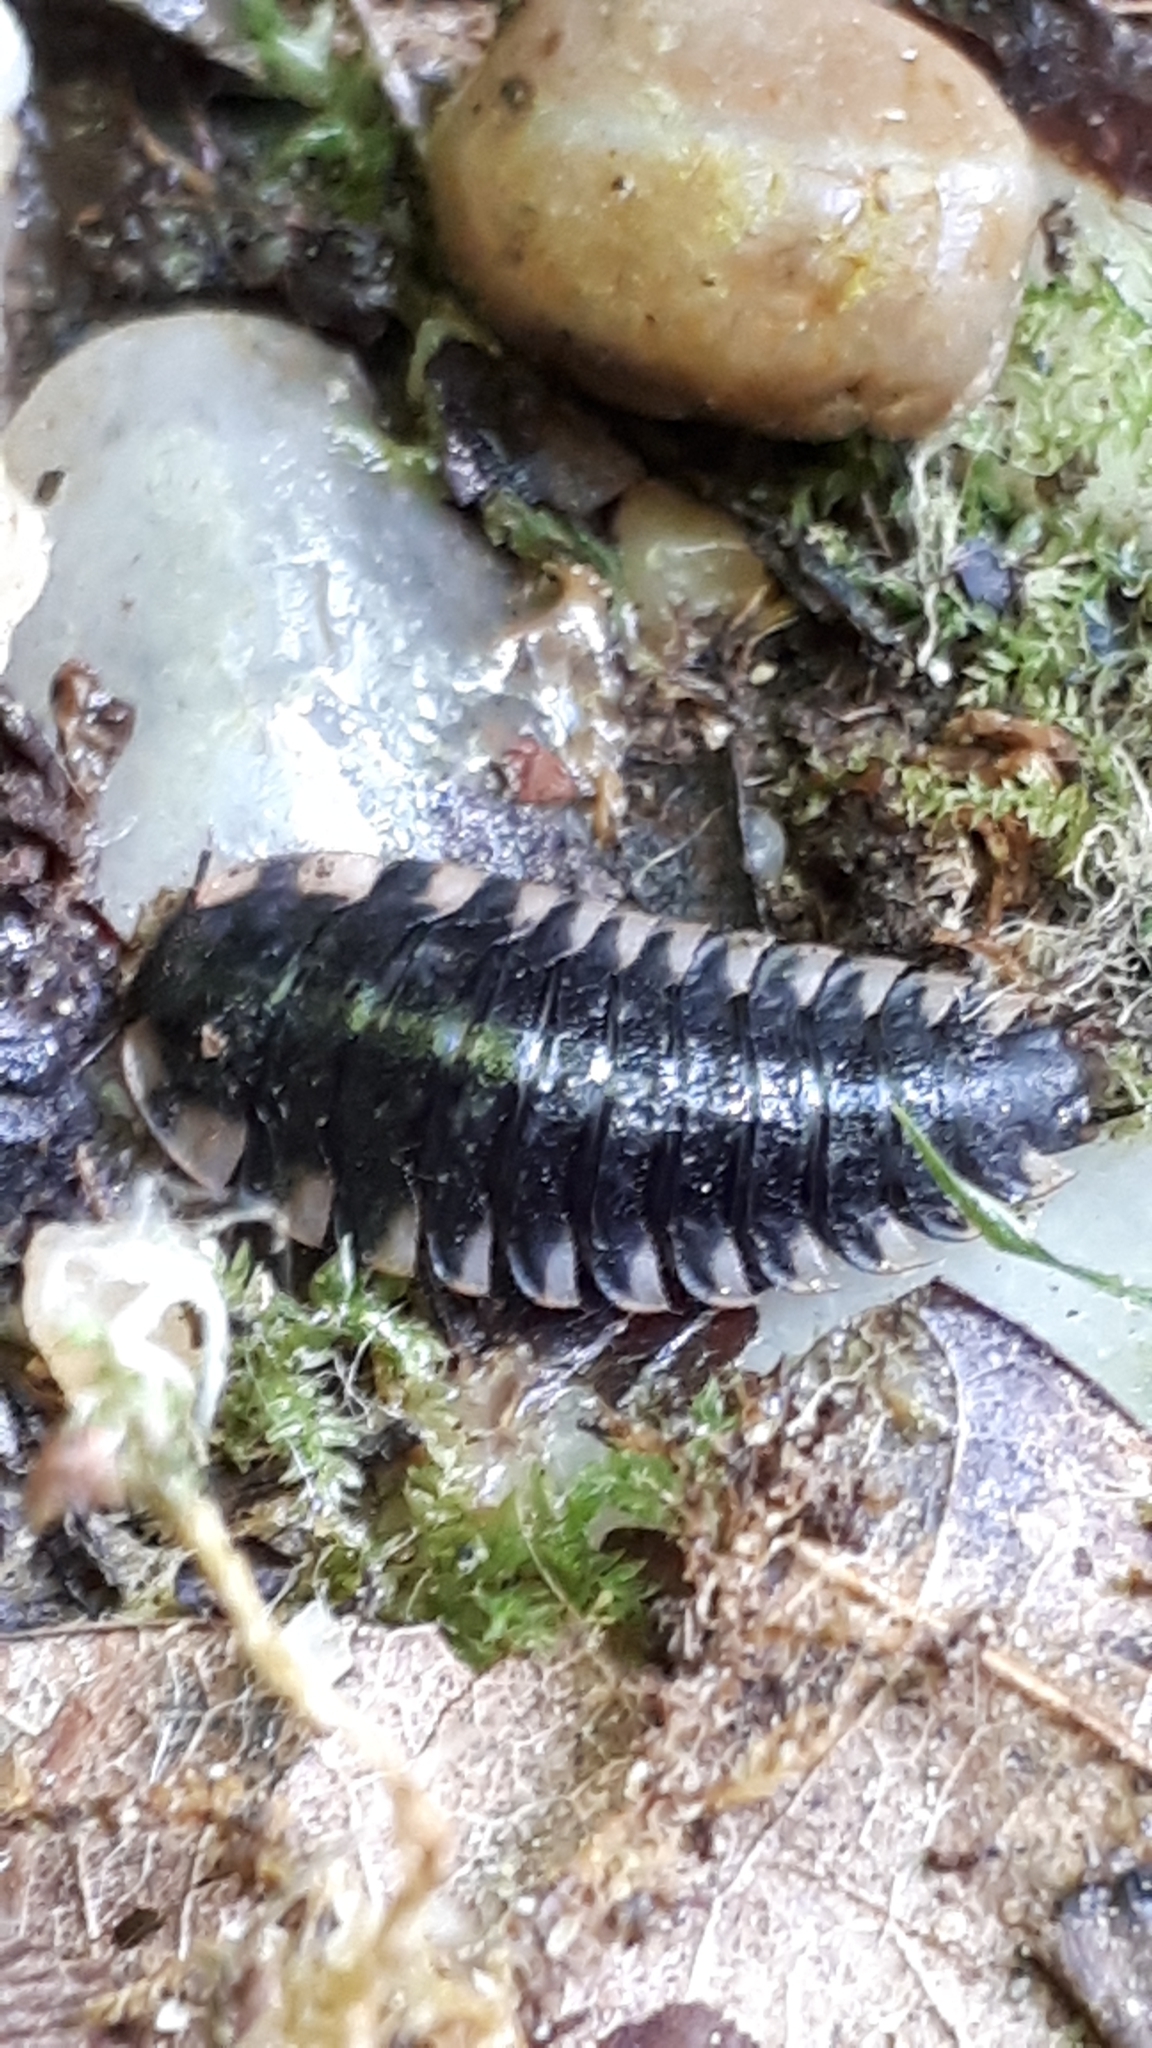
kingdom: Animalia
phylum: Arthropoda
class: Insecta
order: Coleoptera
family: Staphylinidae
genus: Oiceoptoma
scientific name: Oiceoptoma thoracicum
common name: Red-breasted carrion beetle
